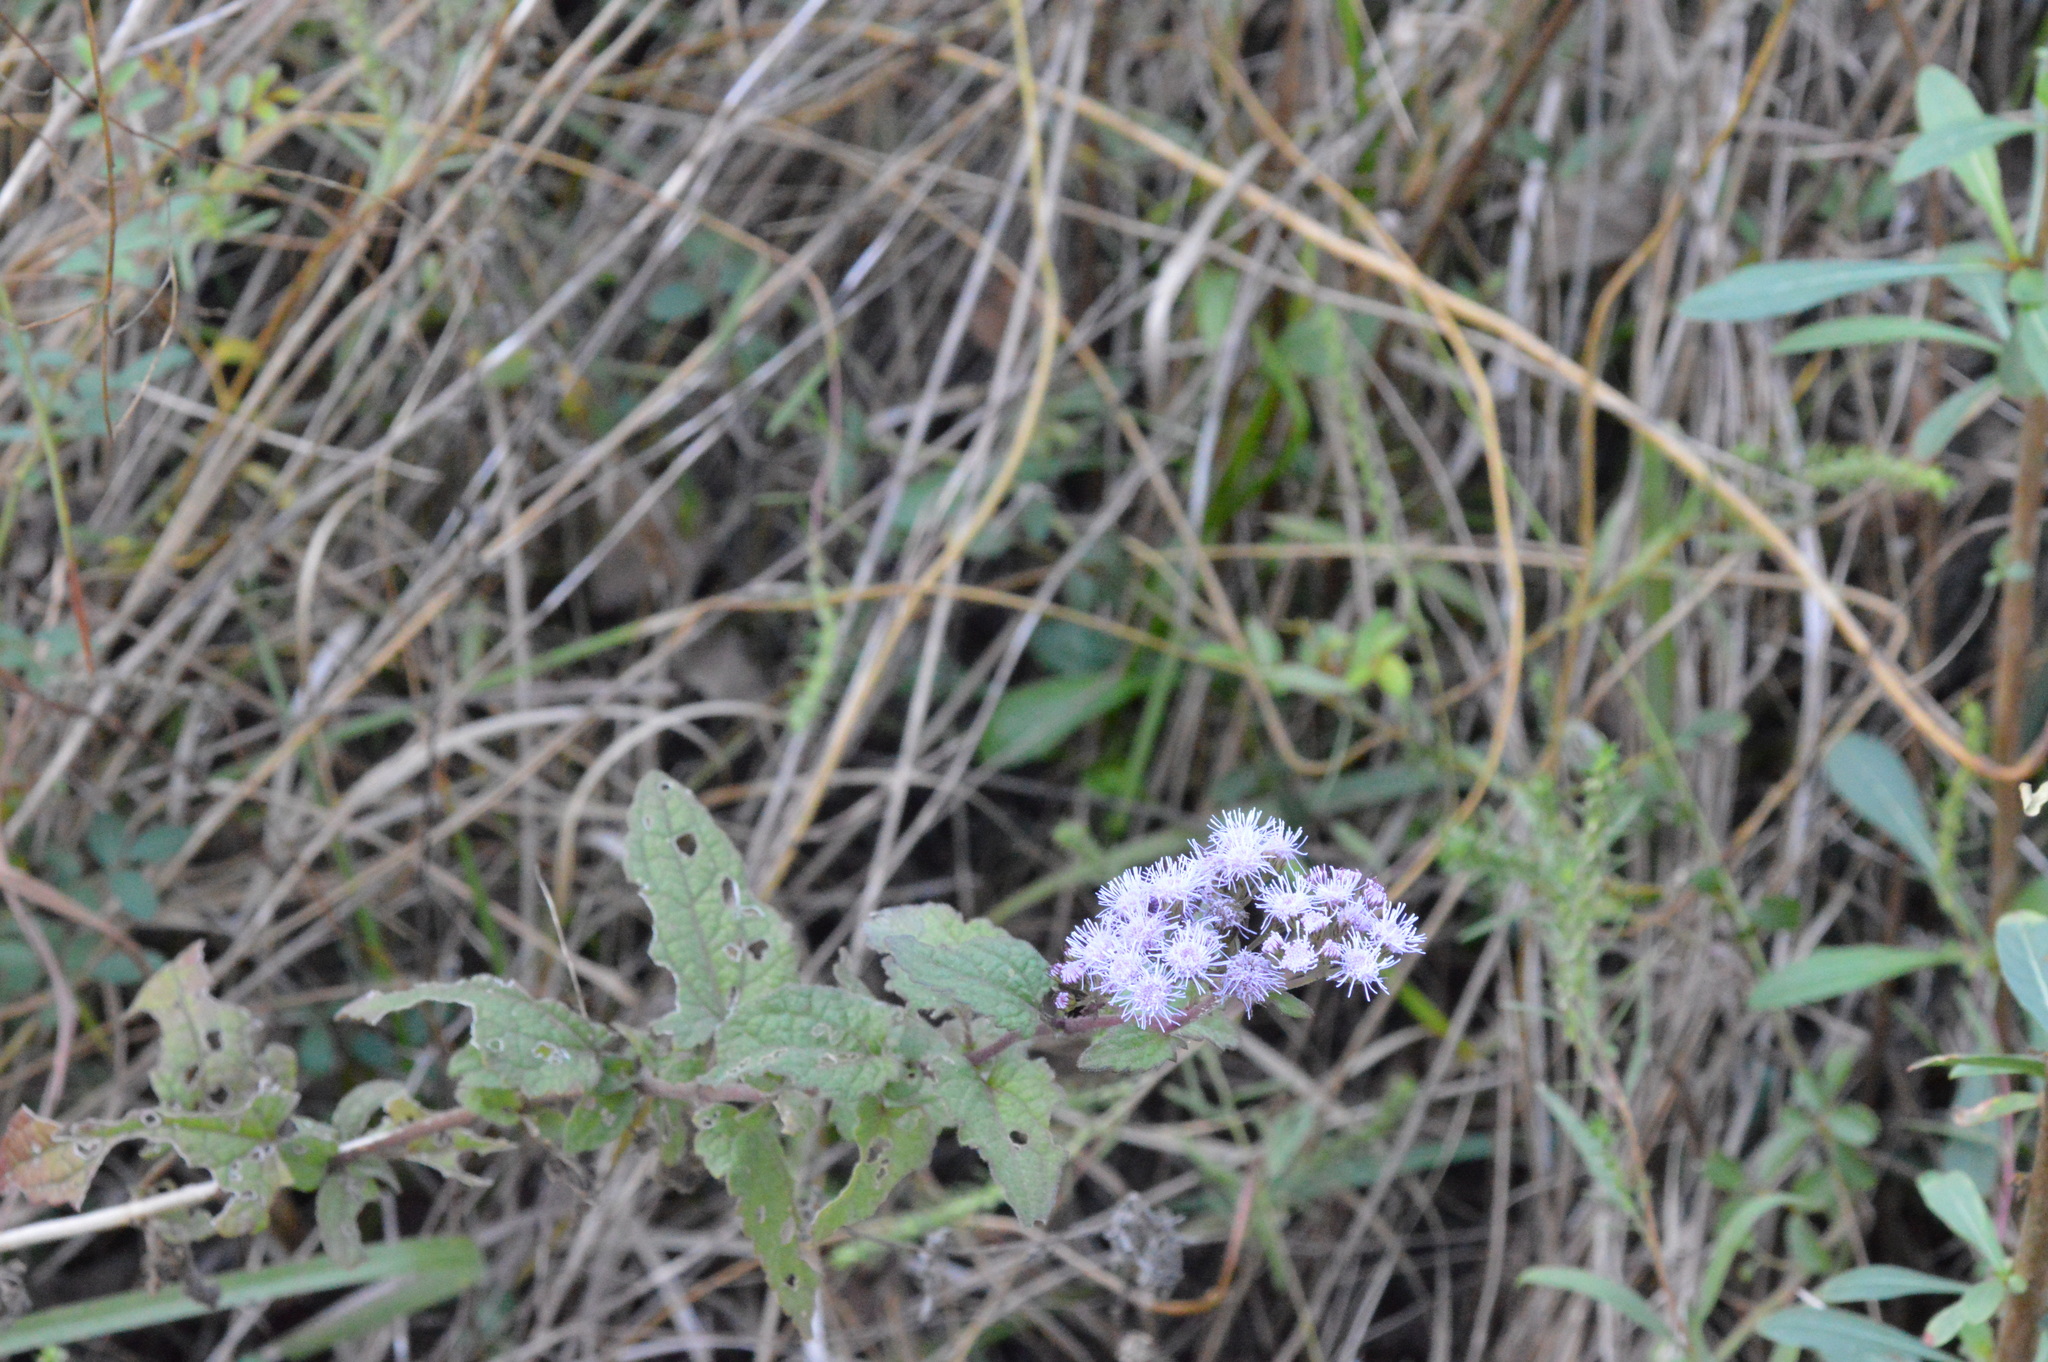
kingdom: Plantae
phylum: Tracheophyta
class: Magnoliopsida
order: Asterales
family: Asteraceae
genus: Conoclinium
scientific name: Conoclinium coelestinum
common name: Blue mistflower
